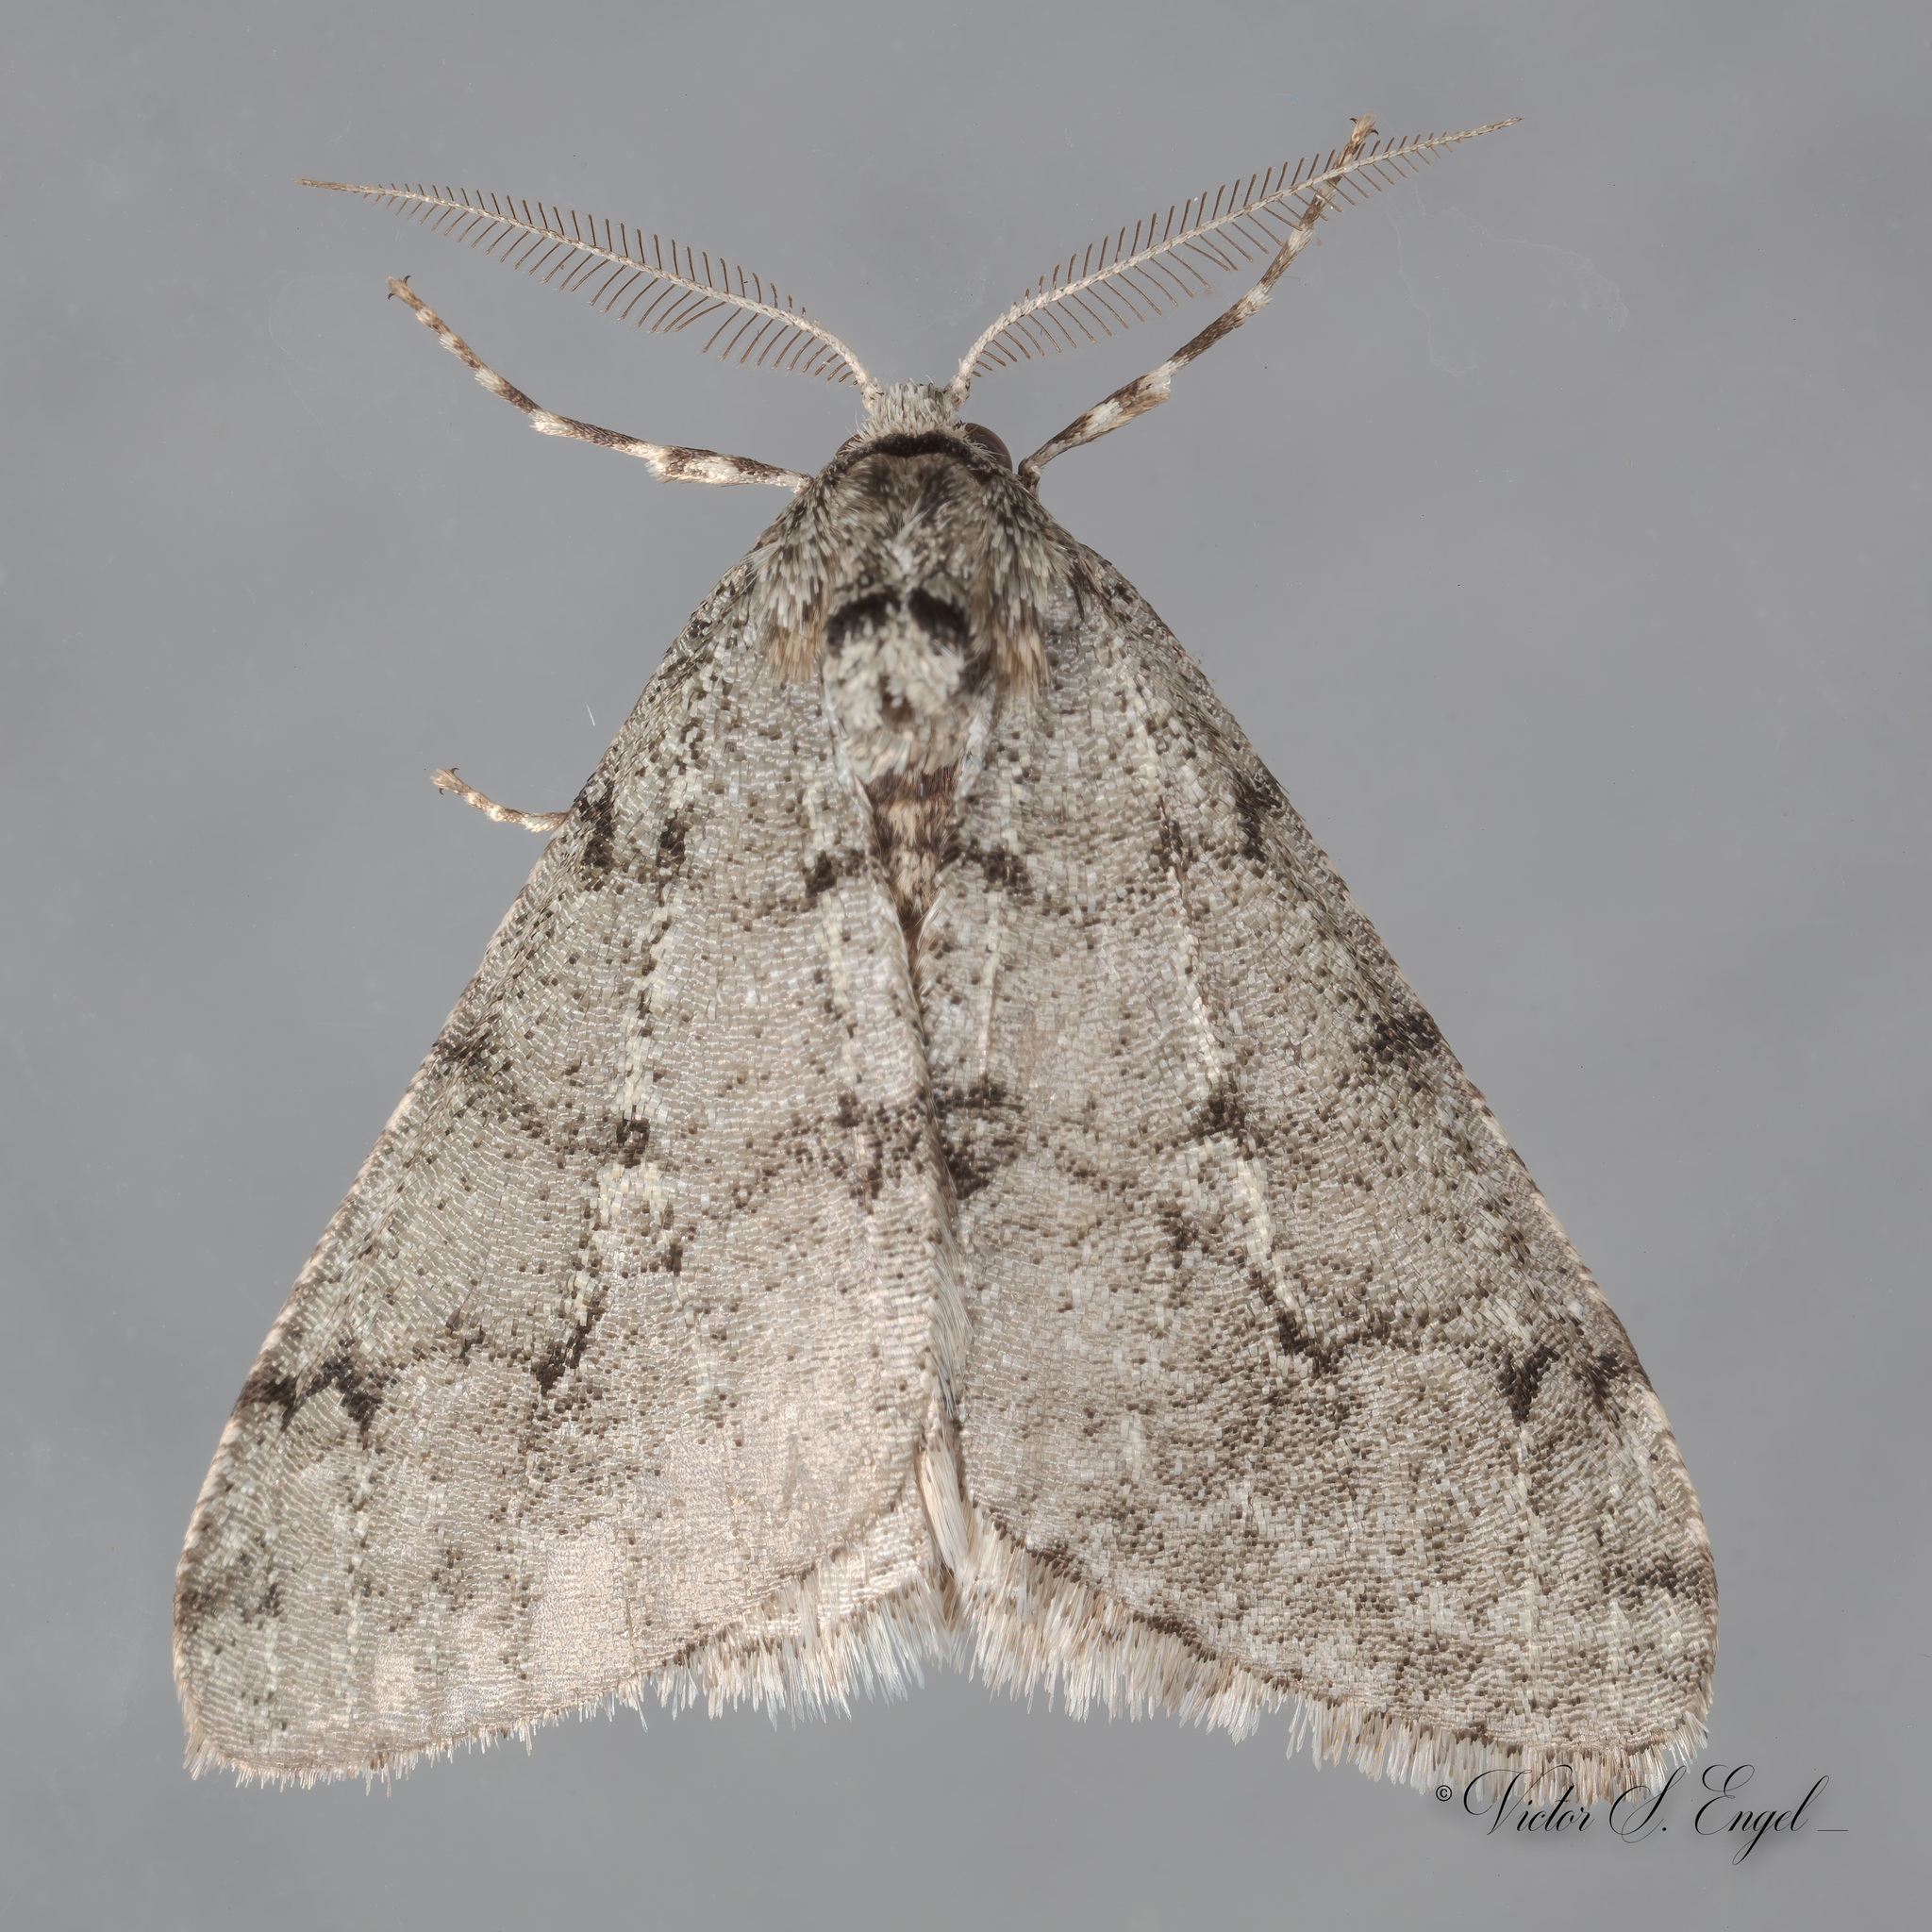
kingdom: Animalia
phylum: Arthropoda
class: Insecta
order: Lepidoptera
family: Geometridae
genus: Phigalia
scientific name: Phigalia strigataria
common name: Small phigalia
